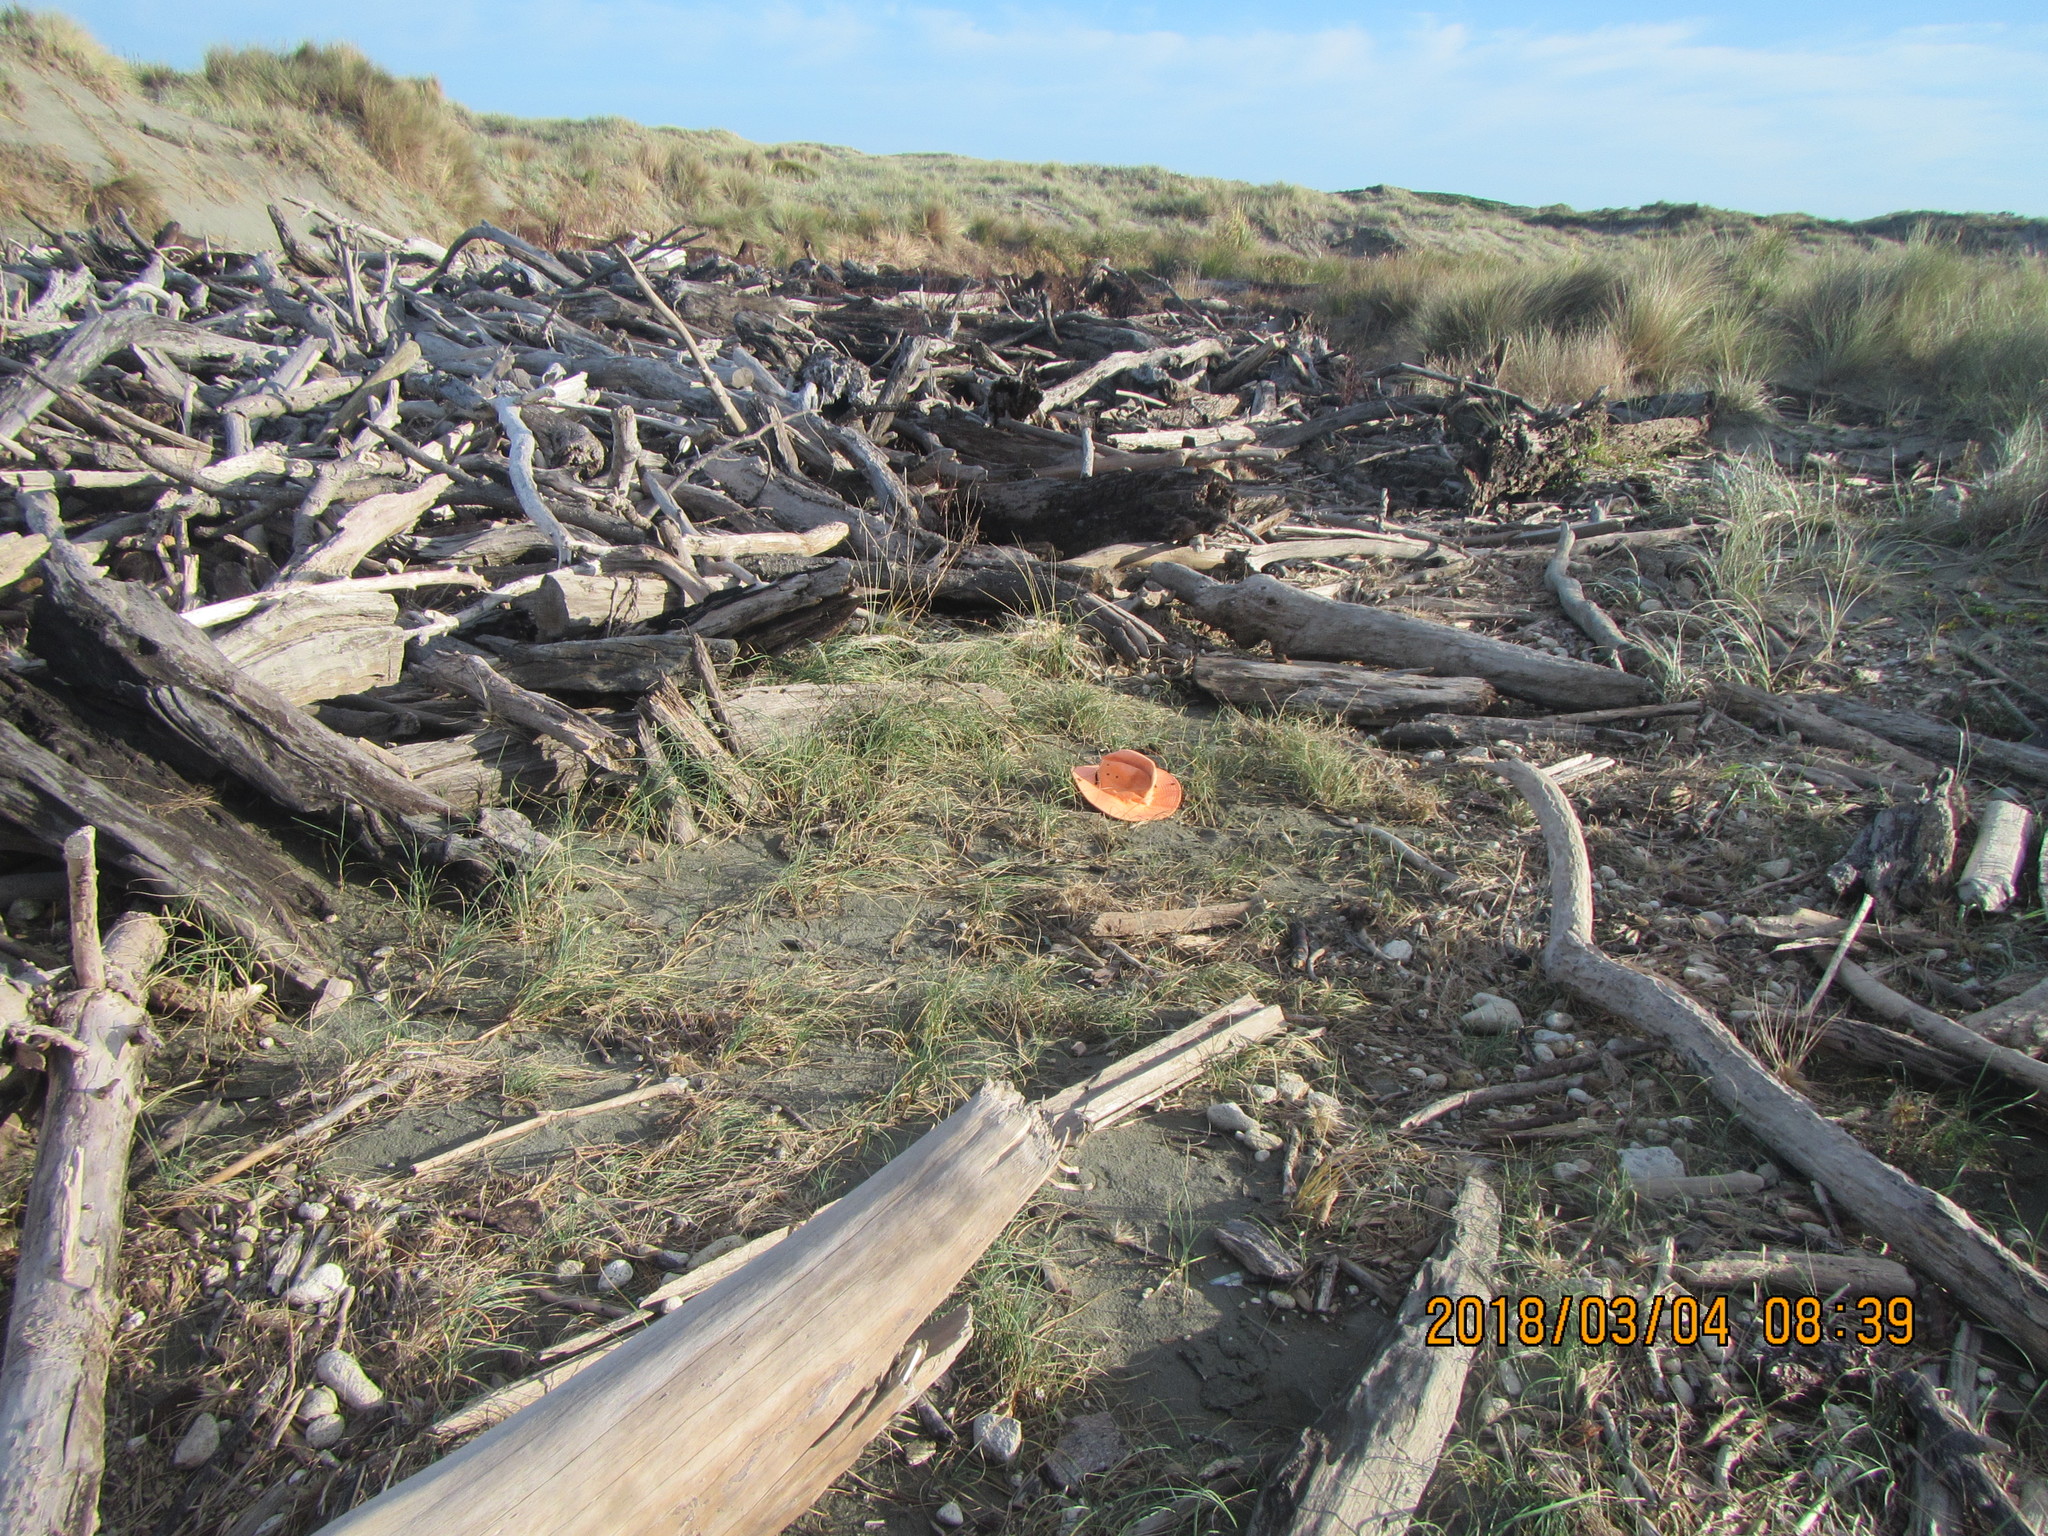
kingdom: Plantae
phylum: Tracheophyta
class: Liliopsida
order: Poales
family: Cyperaceae
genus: Carex
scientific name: Carex pumila
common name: Dwarf sedge
